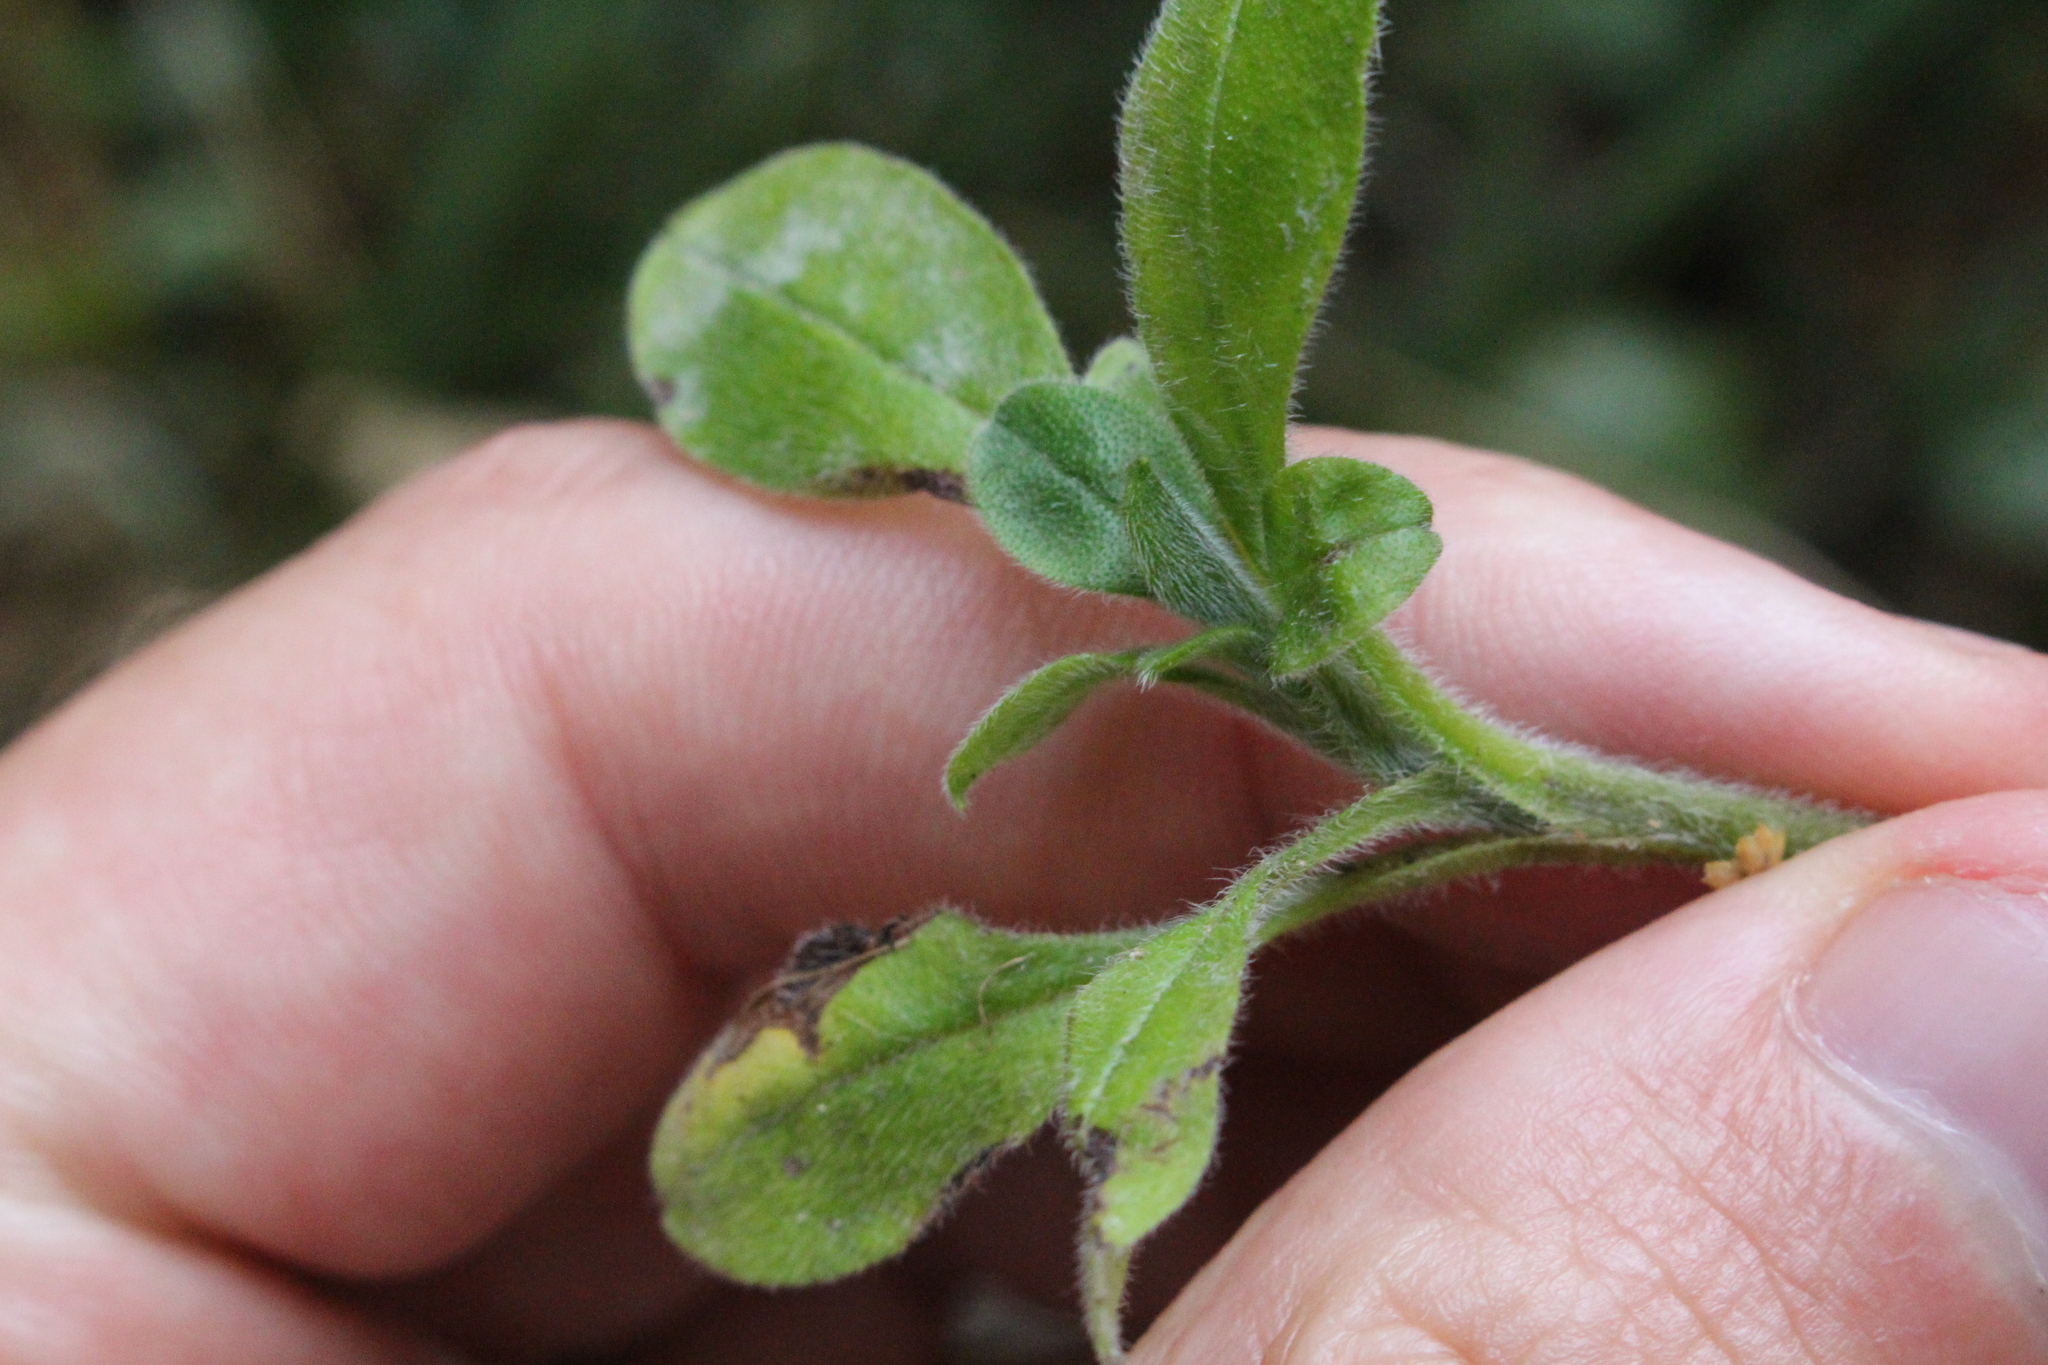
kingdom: Plantae
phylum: Tracheophyta
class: Magnoliopsida
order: Boraginales
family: Boraginaceae
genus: Myosotis
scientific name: Myosotis laxa
